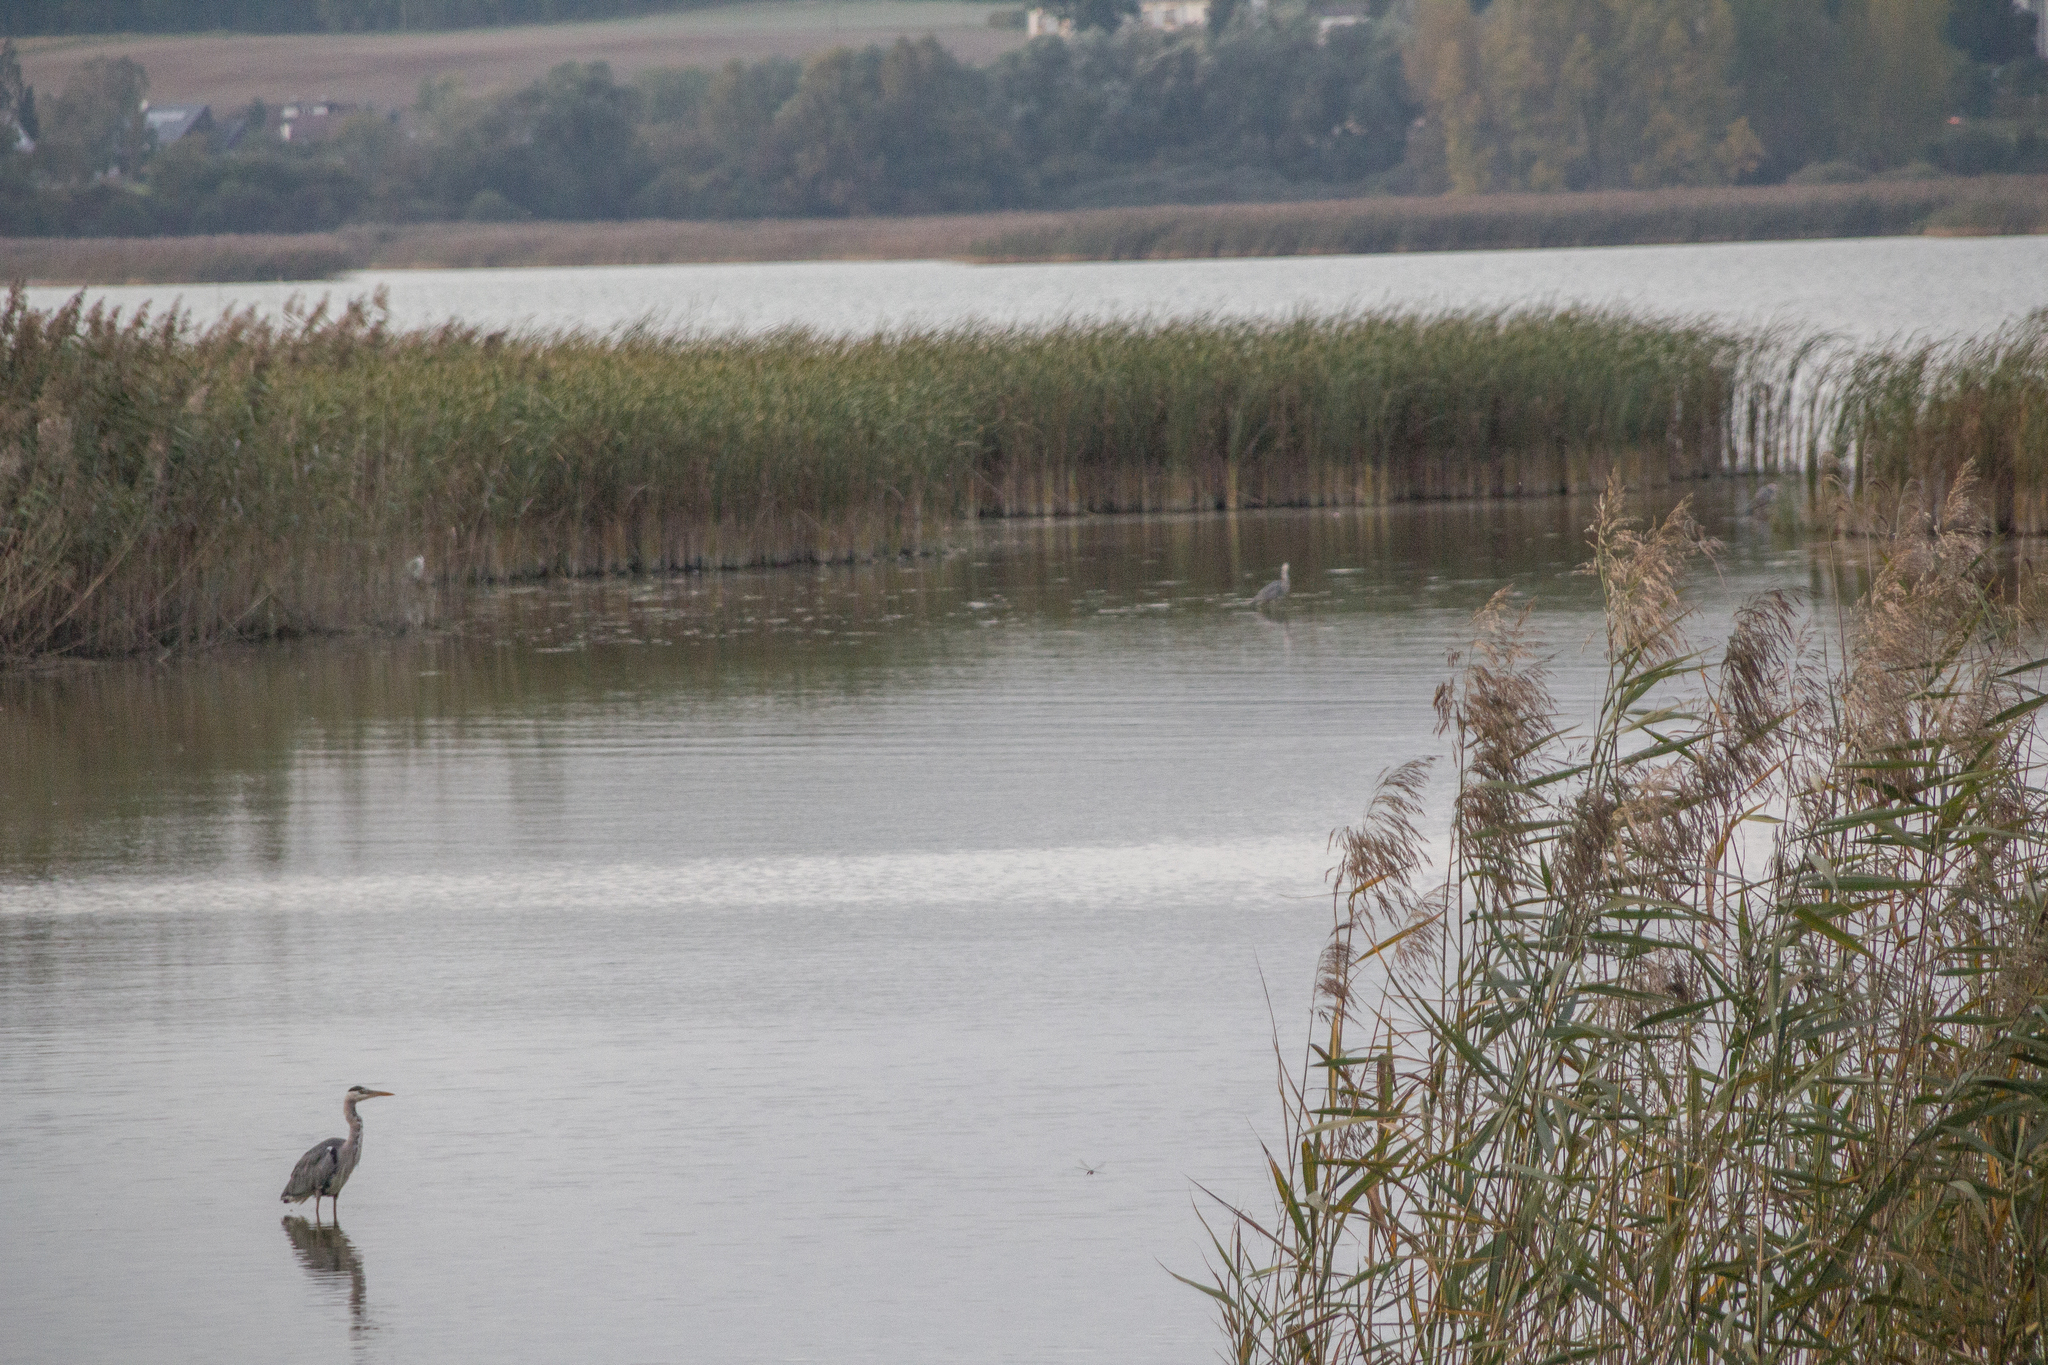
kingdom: Animalia
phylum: Chordata
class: Aves
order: Pelecaniformes
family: Ardeidae
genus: Ardea
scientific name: Ardea cinerea
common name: Grey heron
